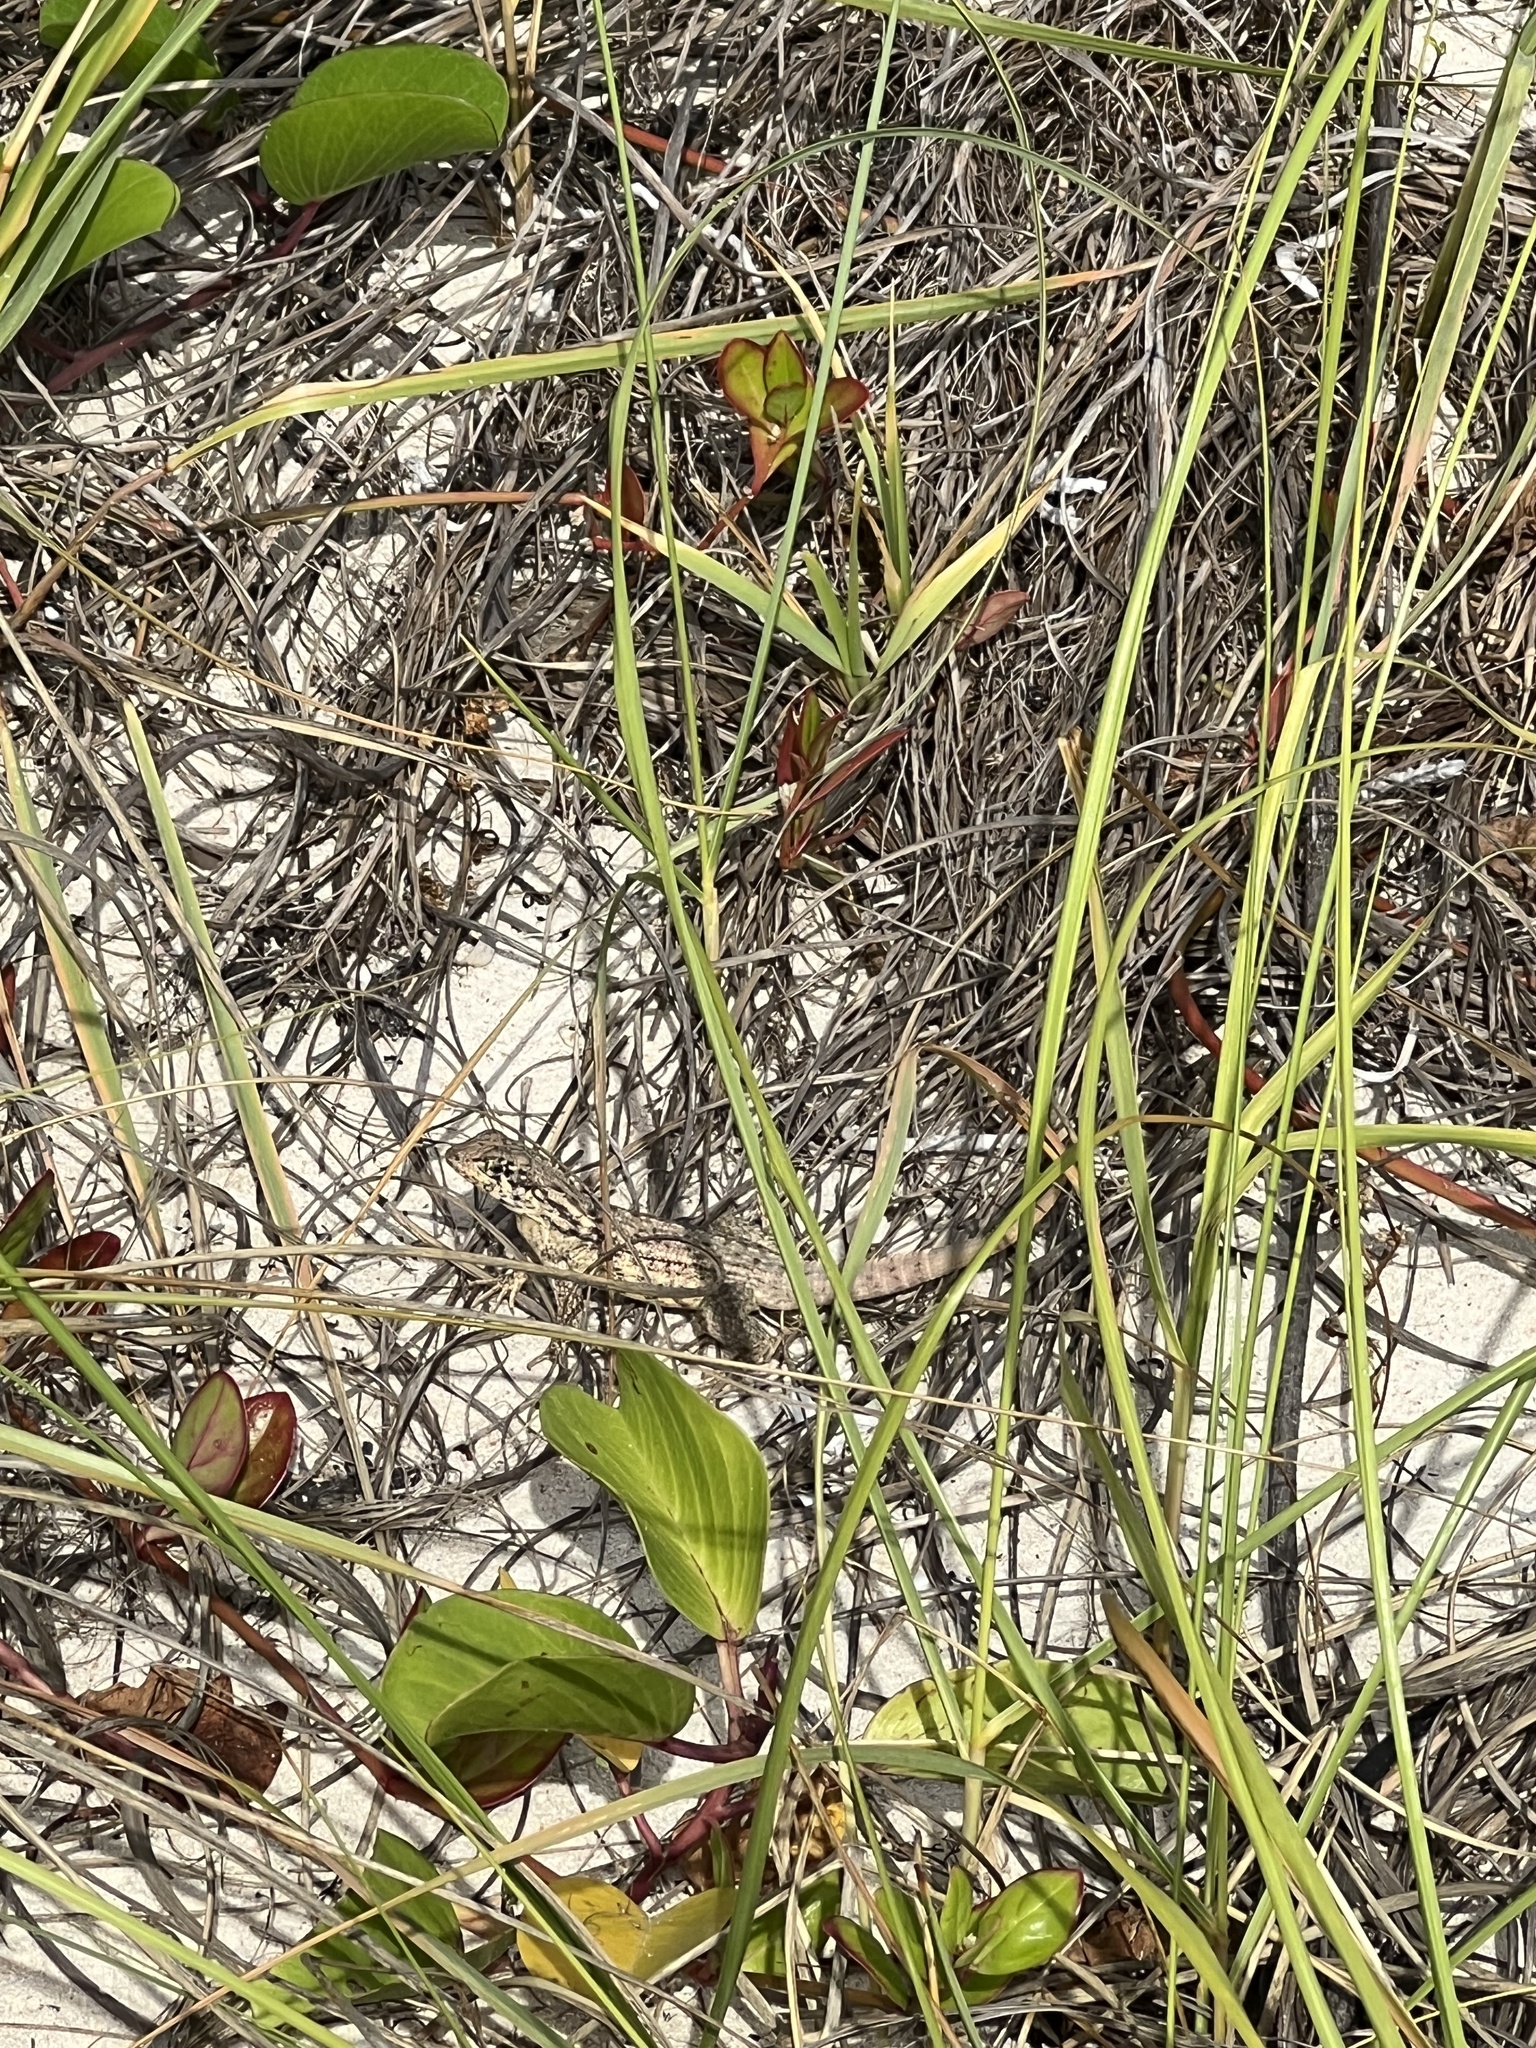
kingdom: Animalia
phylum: Chordata
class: Squamata
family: Leiocephalidae
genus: Leiocephalus
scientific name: Leiocephalus carinatus
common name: Northern curly-tailed lizard
